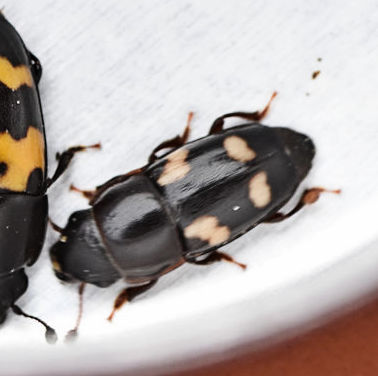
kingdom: Animalia
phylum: Arthropoda
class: Insecta
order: Coleoptera
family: Nitidulidae
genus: Glischrochilus
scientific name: Glischrochilus quadrisignatus
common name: Picnic beetle
